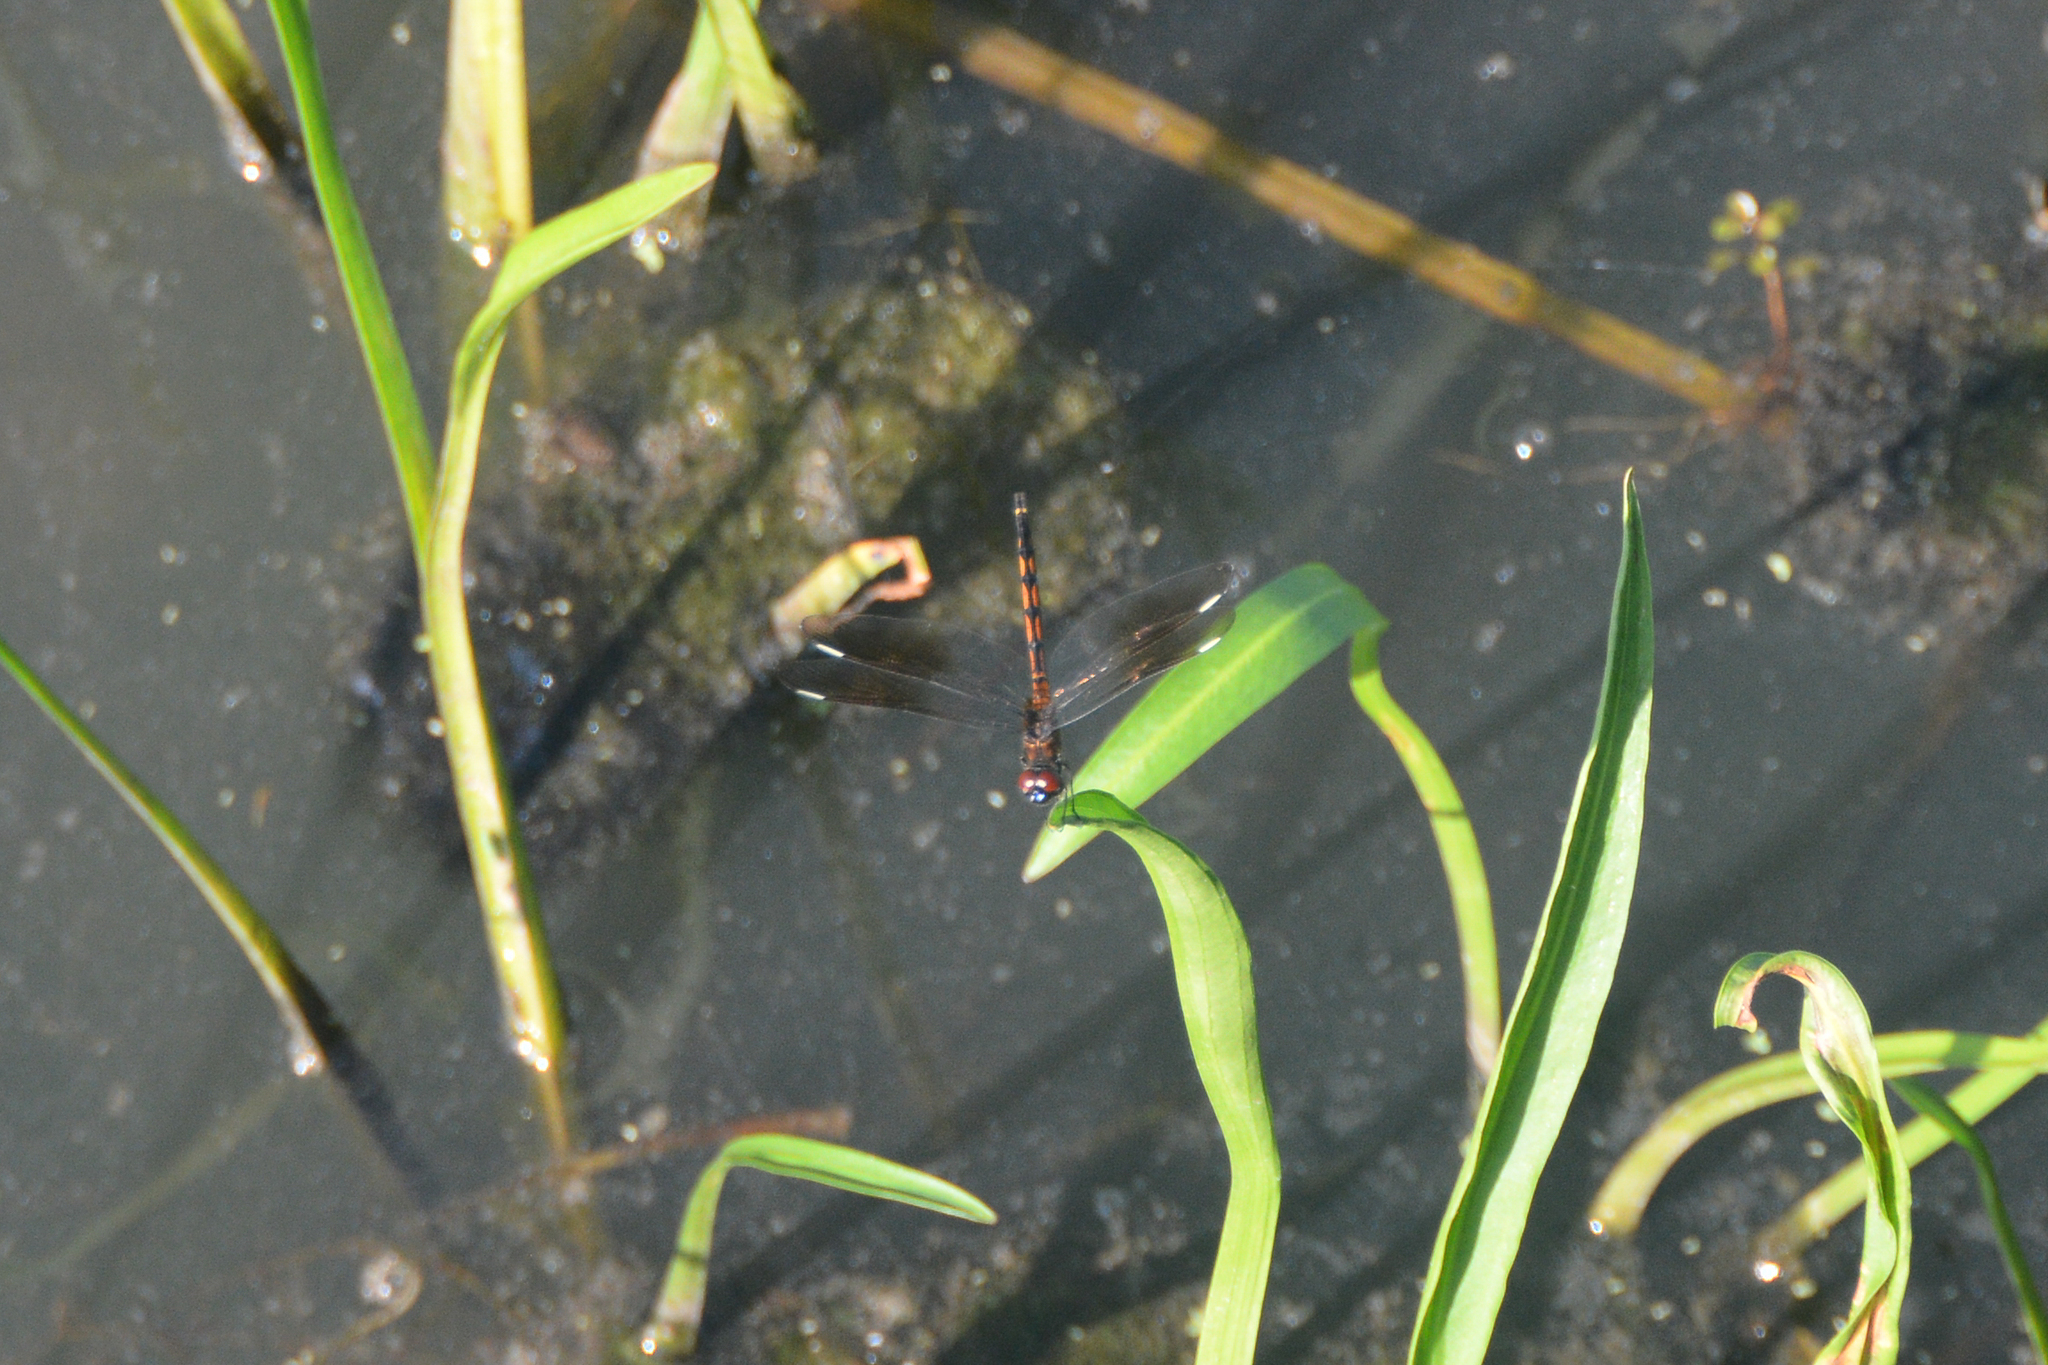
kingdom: Animalia
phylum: Arthropoda
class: Insecta
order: Odonata
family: Libellulidae
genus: Brachymesia
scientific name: Brachymesia gravida
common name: Four-spotted pennant
